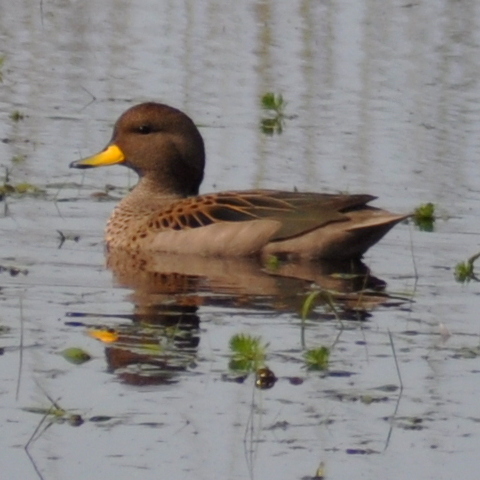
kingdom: Animalia
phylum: Chordata
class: Aves
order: Anseriformes
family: Anatidae
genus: Anas
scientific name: Anas flavirostris
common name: Yellow-billed teal
